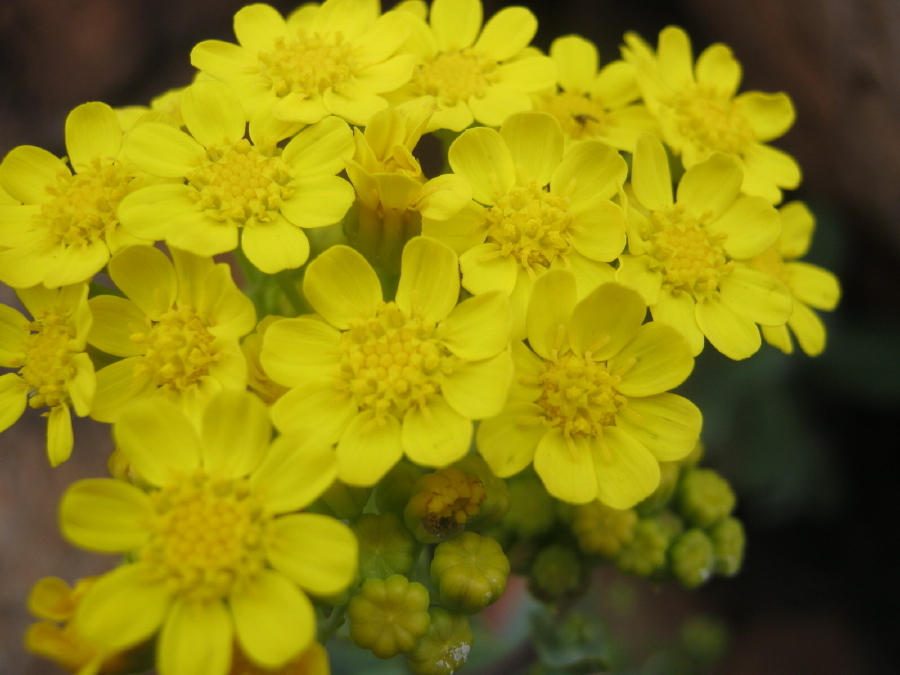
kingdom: Plantae
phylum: Tracheophyta
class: Magnoliopsida
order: Asterales
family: Asteraceae
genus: Othonna
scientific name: Othonna parviflora
